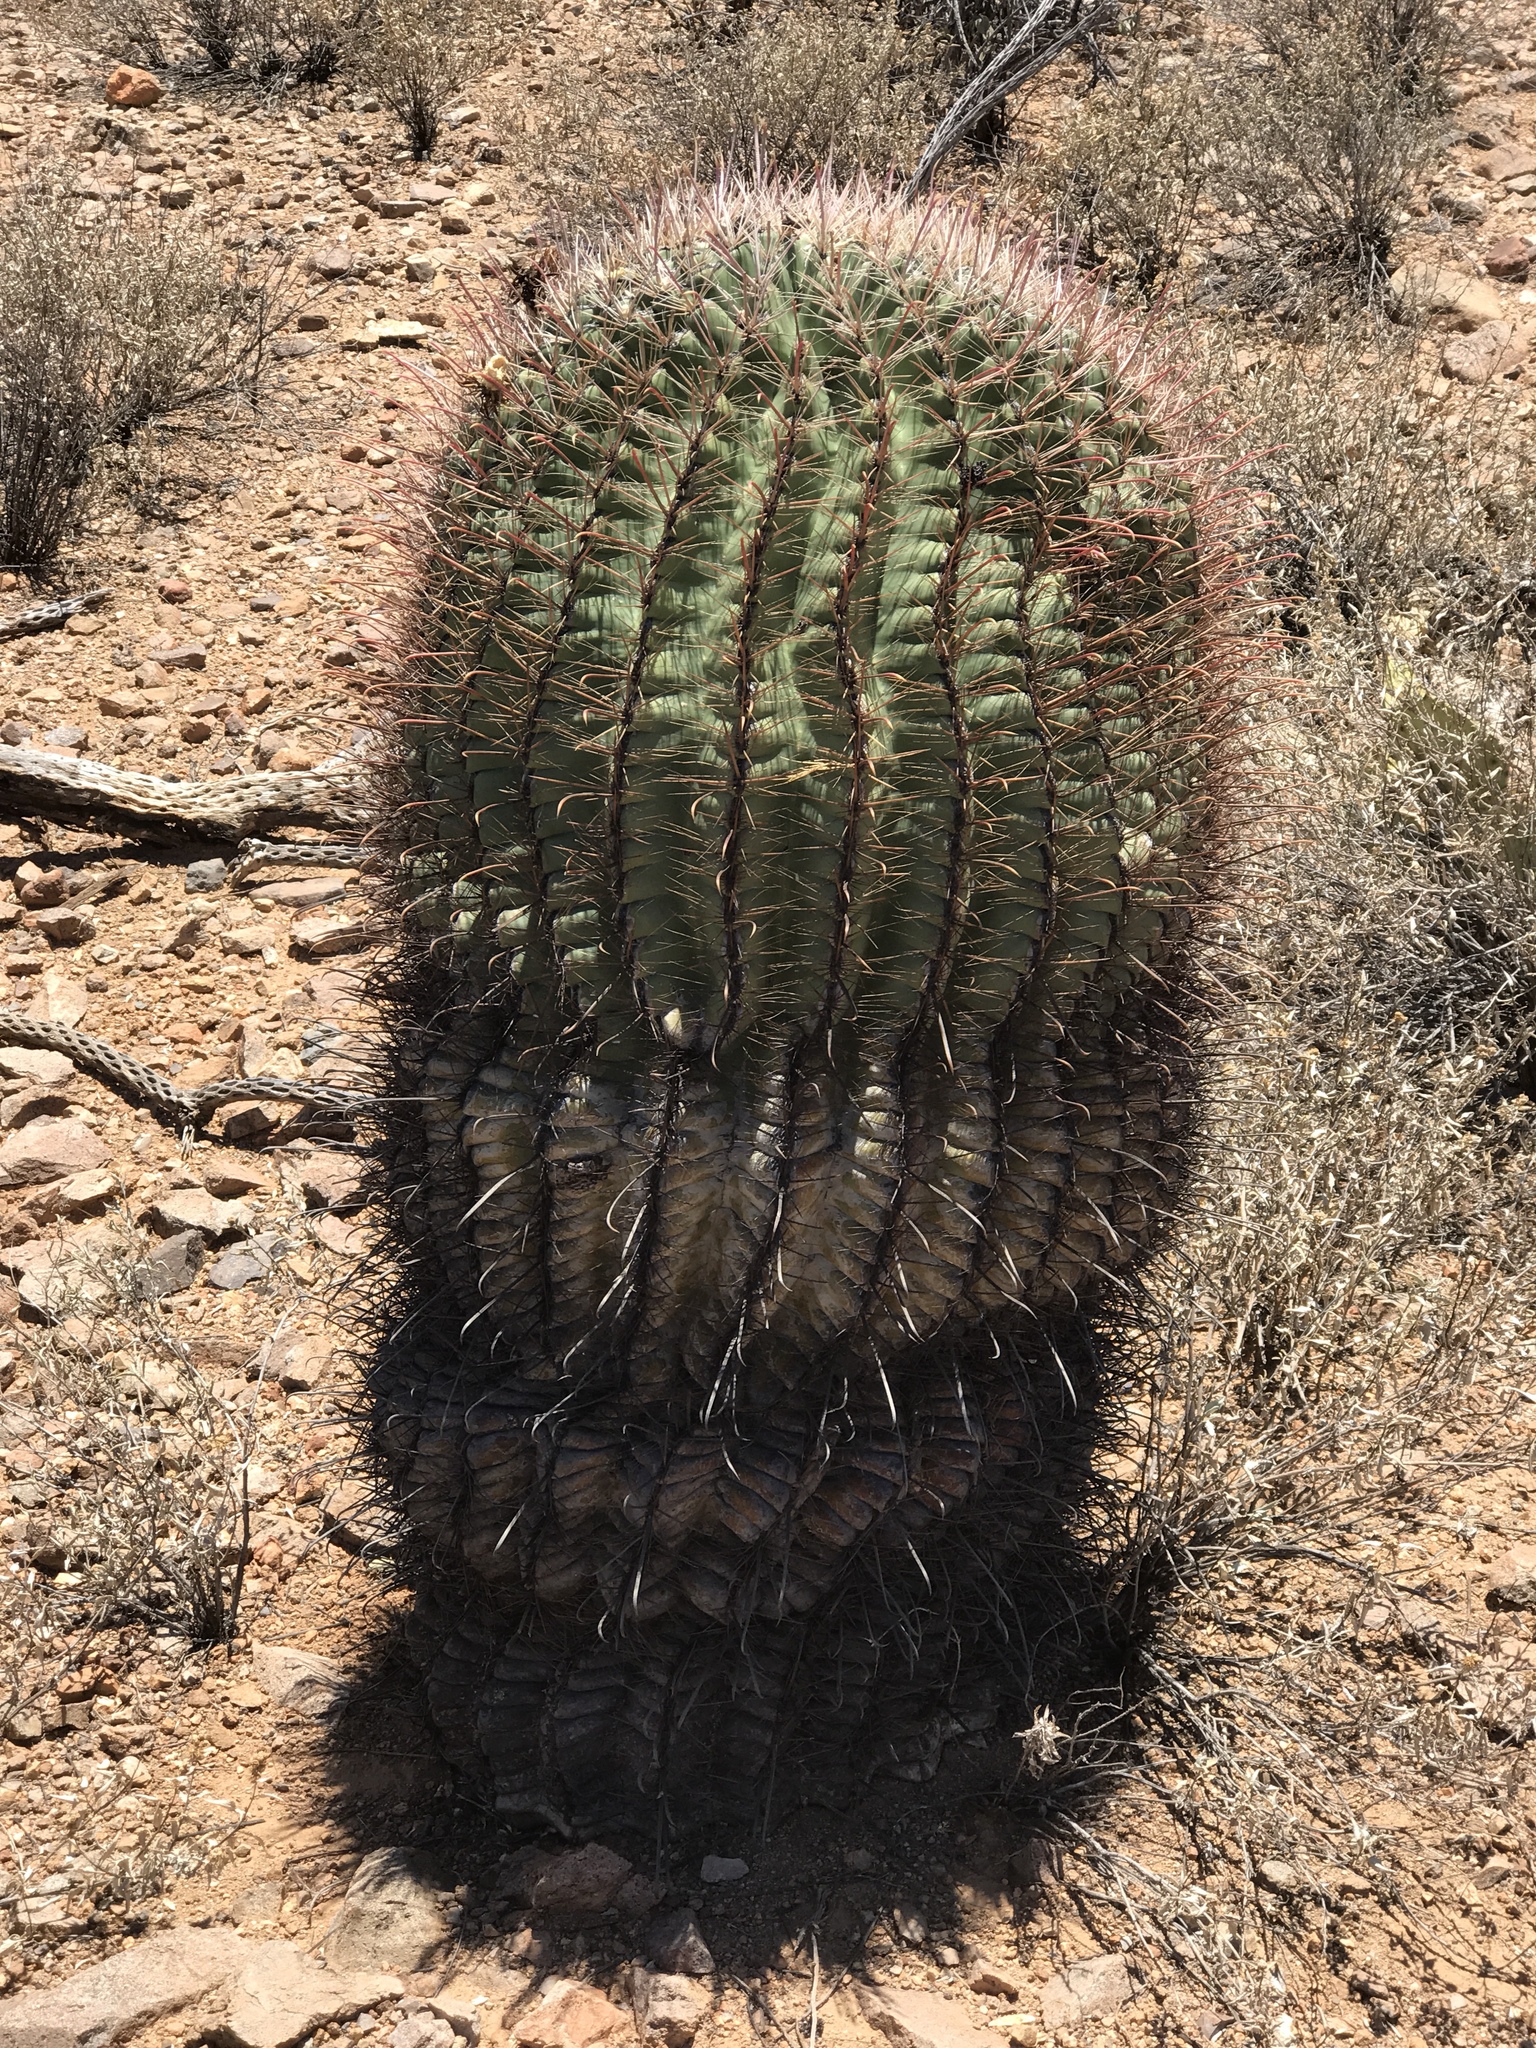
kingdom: Plantae
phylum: Tracheophyta
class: Magnoliopsida
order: Caryophyllales
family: Cactaceae
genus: Ferocactus
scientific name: Ferocactus wislizeni
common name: Candy barrel cactus
